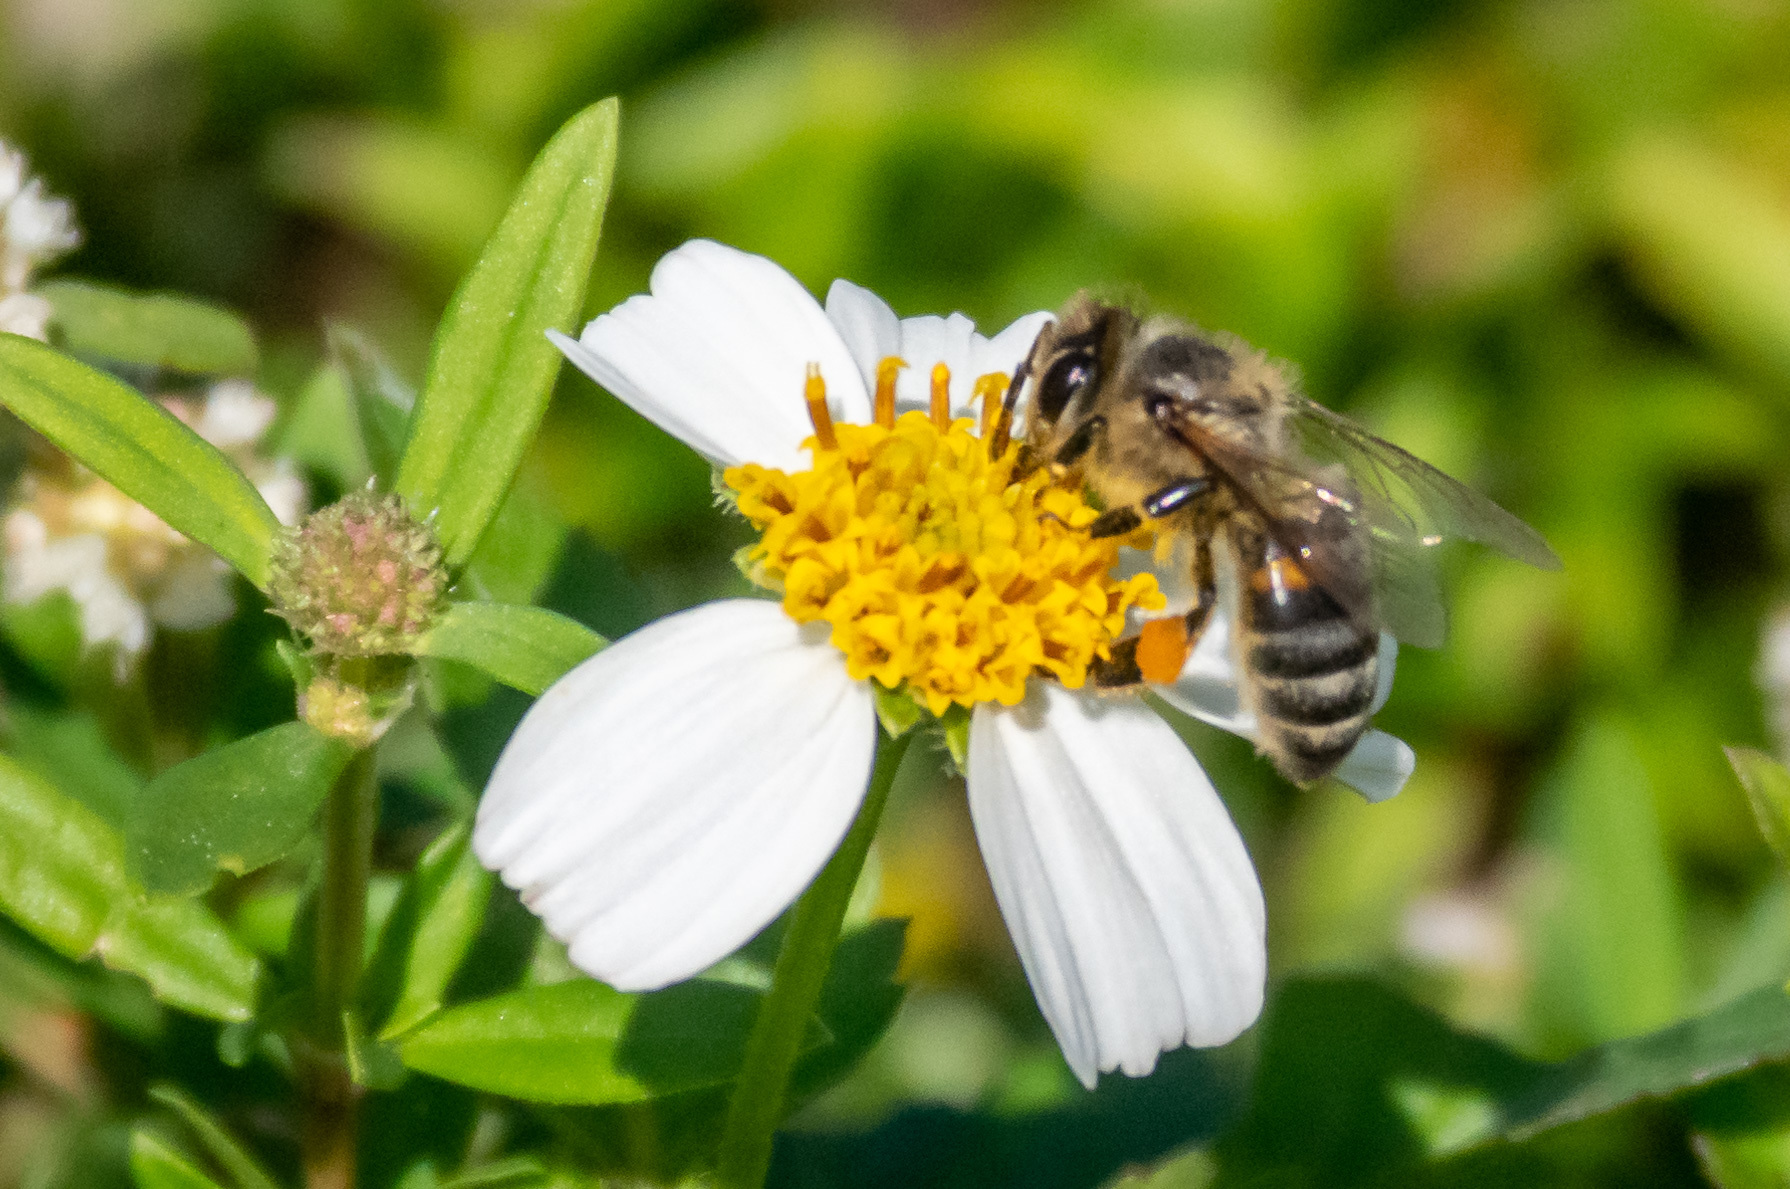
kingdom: Animalia
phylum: Arthropoda
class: Insecta
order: Hymenoptera
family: Apidae
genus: Apis
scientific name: Apis mellifera
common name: Honey bee
